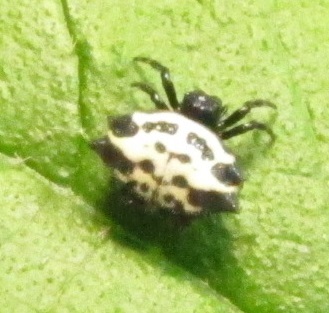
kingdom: Animalia
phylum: Arthropoda
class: Arachnida
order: Araneae
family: Araneidae
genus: Gasteracantha
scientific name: Gasteracantha cancriformis
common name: Orb weavers
